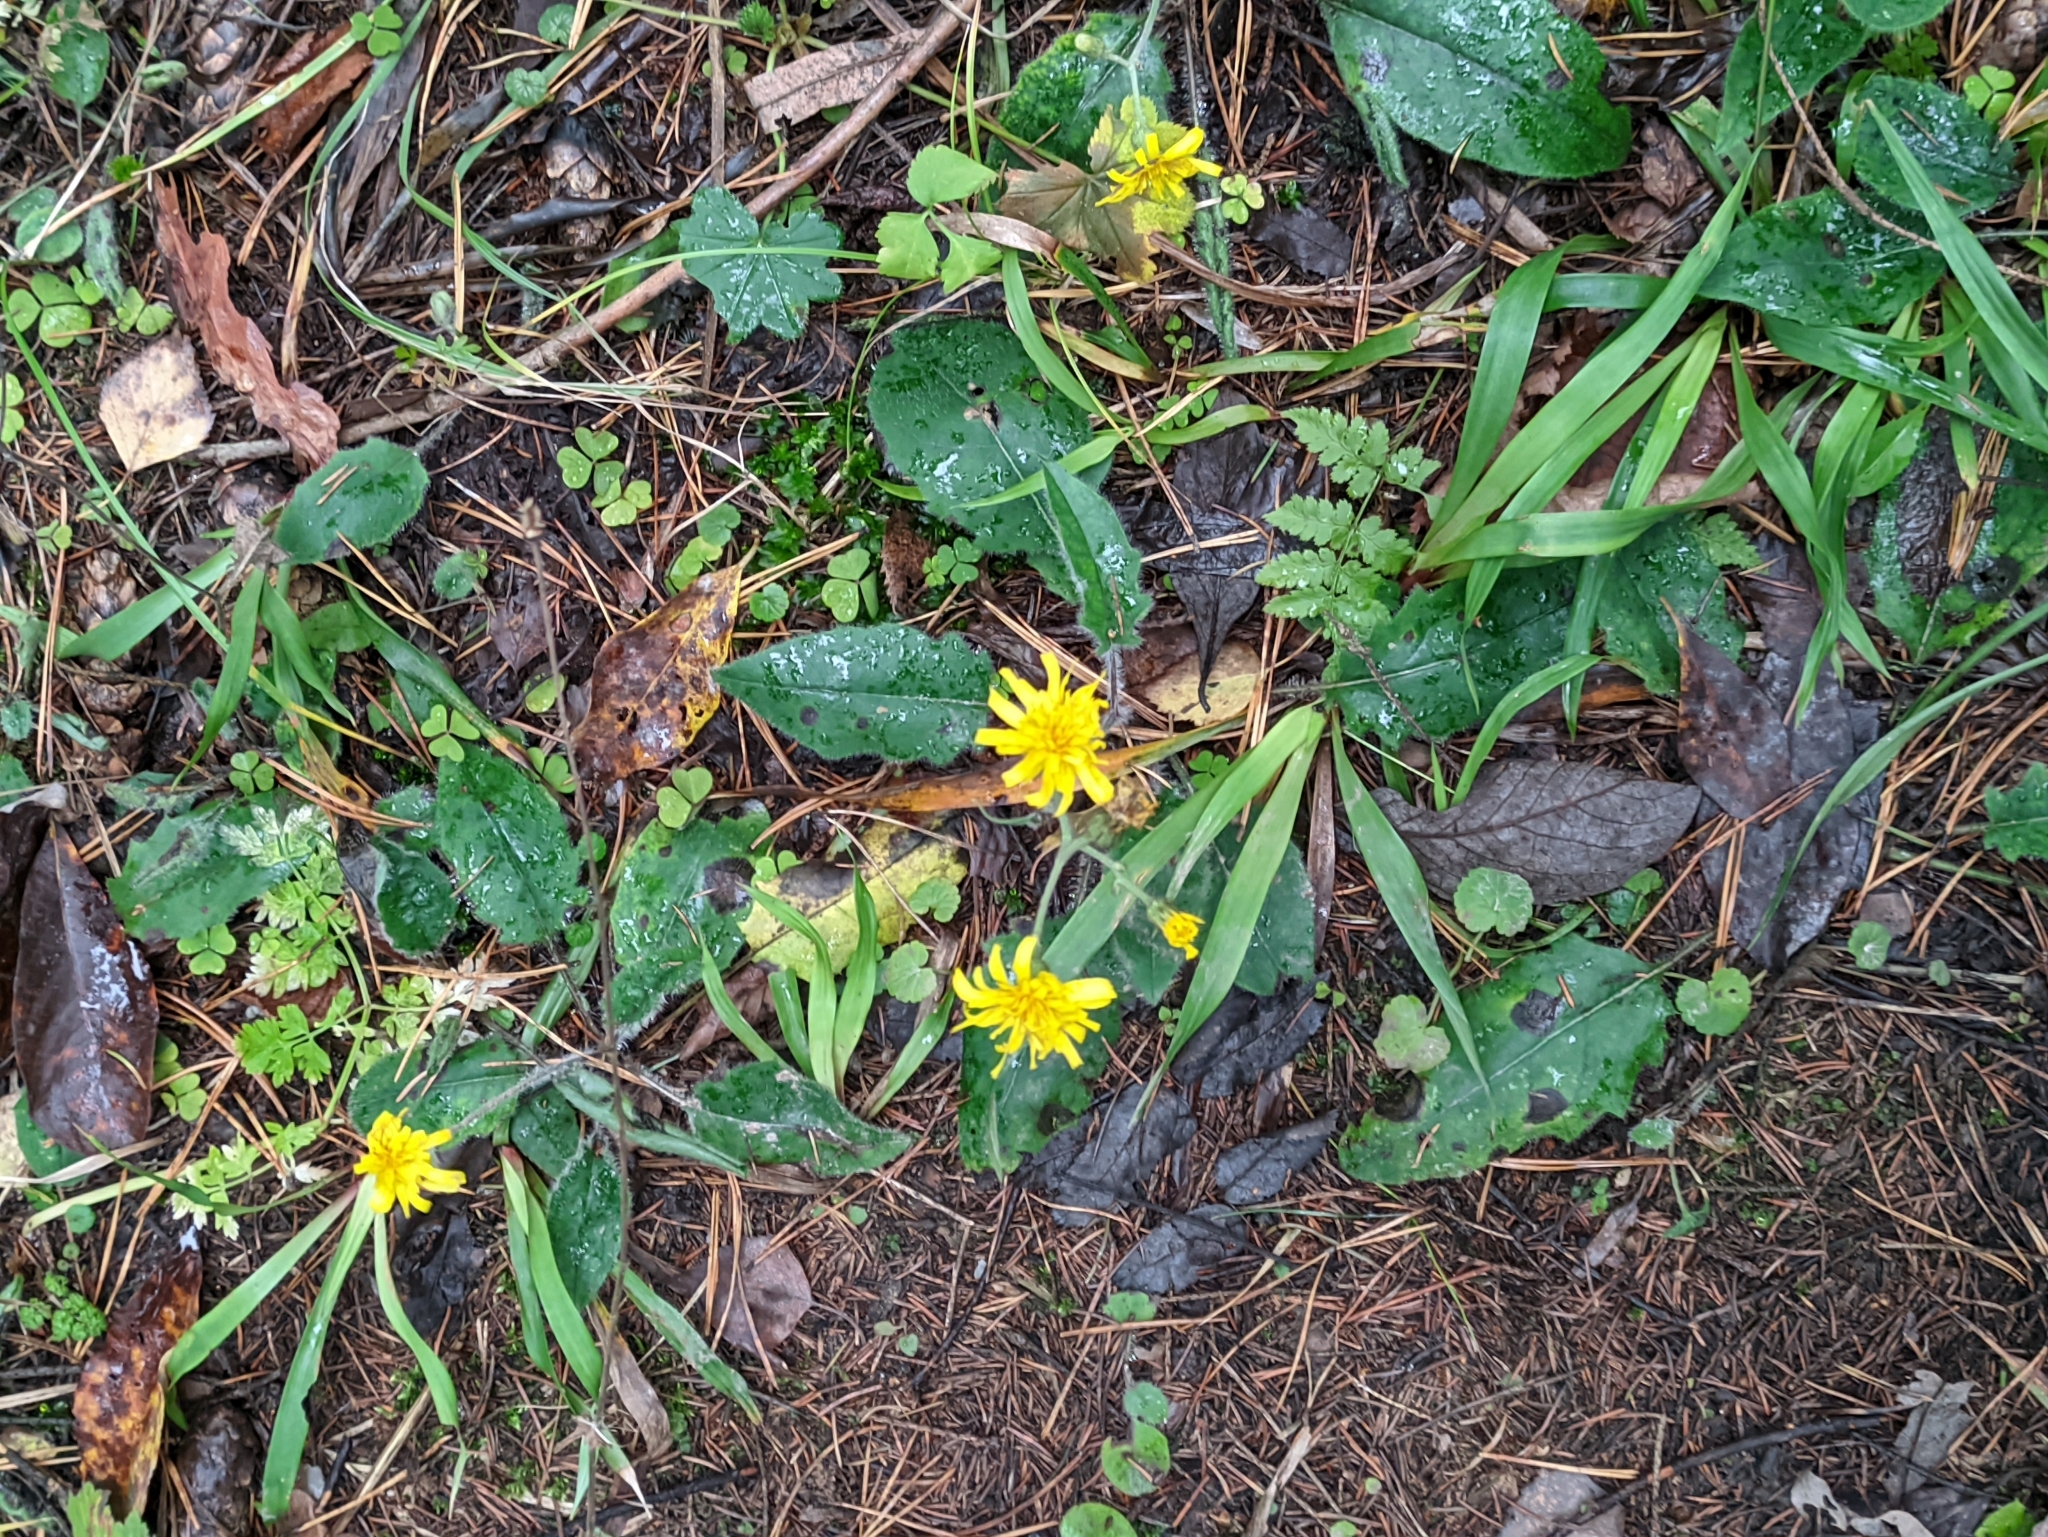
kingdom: Plantae
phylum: Tracheophyta
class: Magnoliopsida
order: Asterales
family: Asteraceae
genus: Hieracium
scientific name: Hieracium murorum
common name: Wall hawkweed
